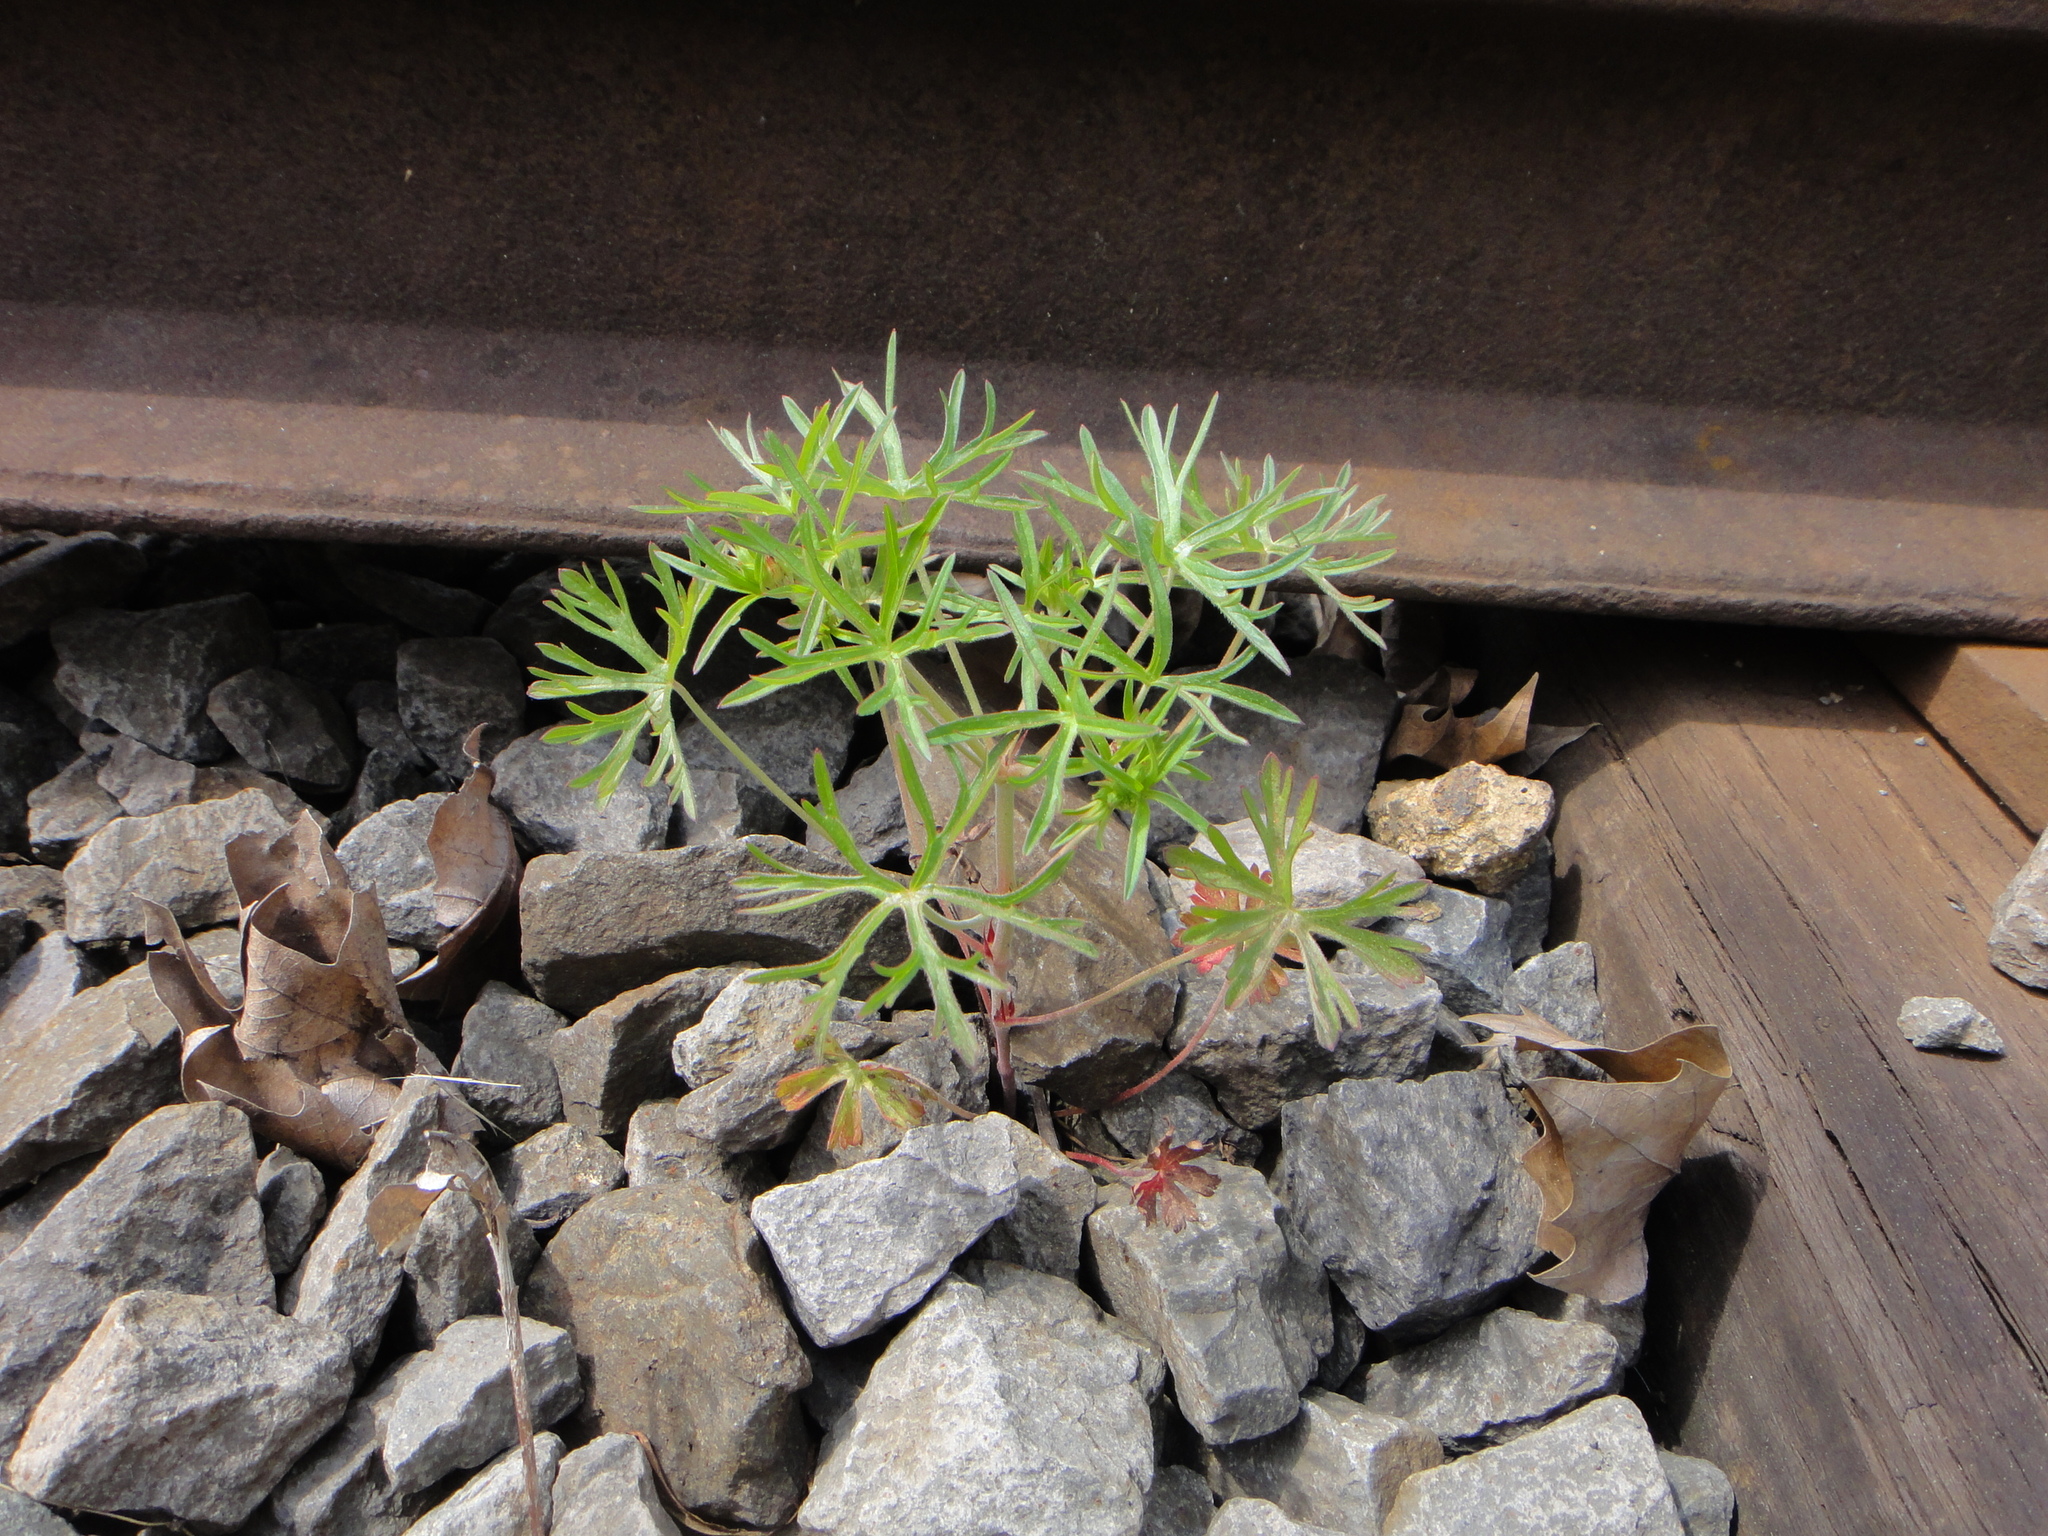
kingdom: Plantae
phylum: Tracheophyta
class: Magnoliopsida
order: Geraniales
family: Geraniaceae
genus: Geranium
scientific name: Geranium dissectum
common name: Cut-leaved crane's-bill
